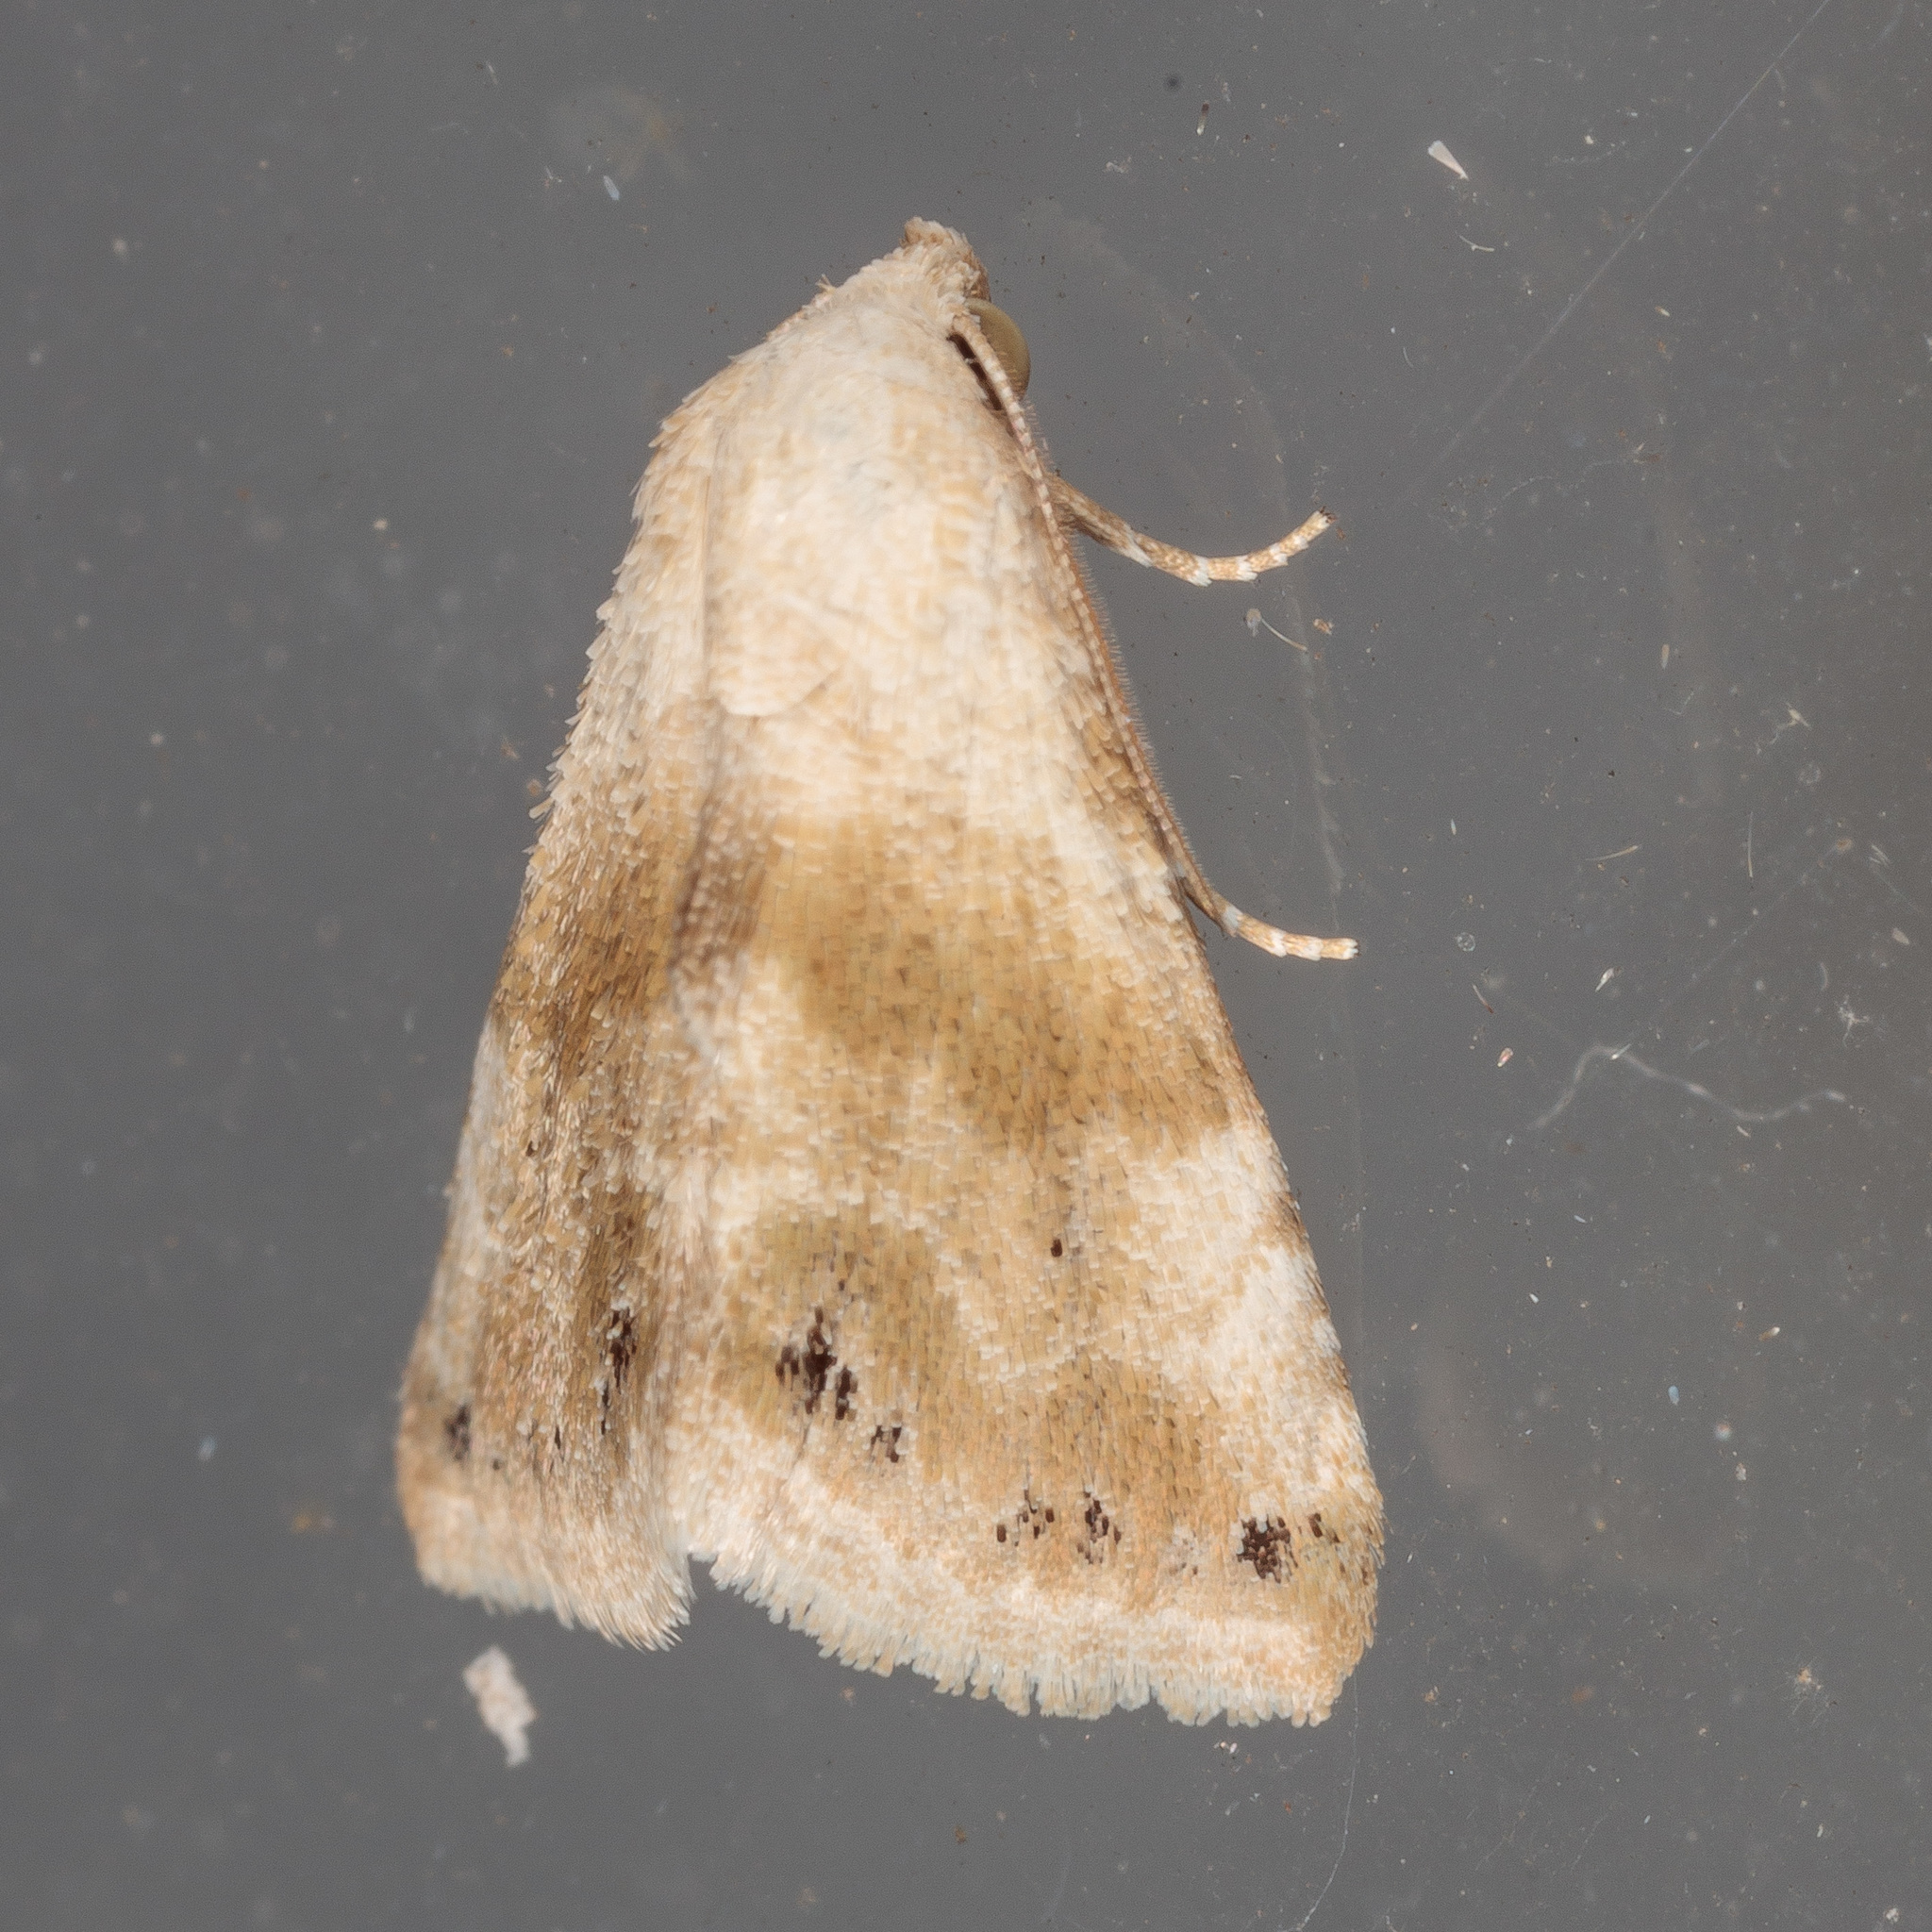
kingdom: Animalia
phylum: Arthropoda
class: Insecta
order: Lepidoptera
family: Noctuidae
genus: Eublemma
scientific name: Eublemma minima
